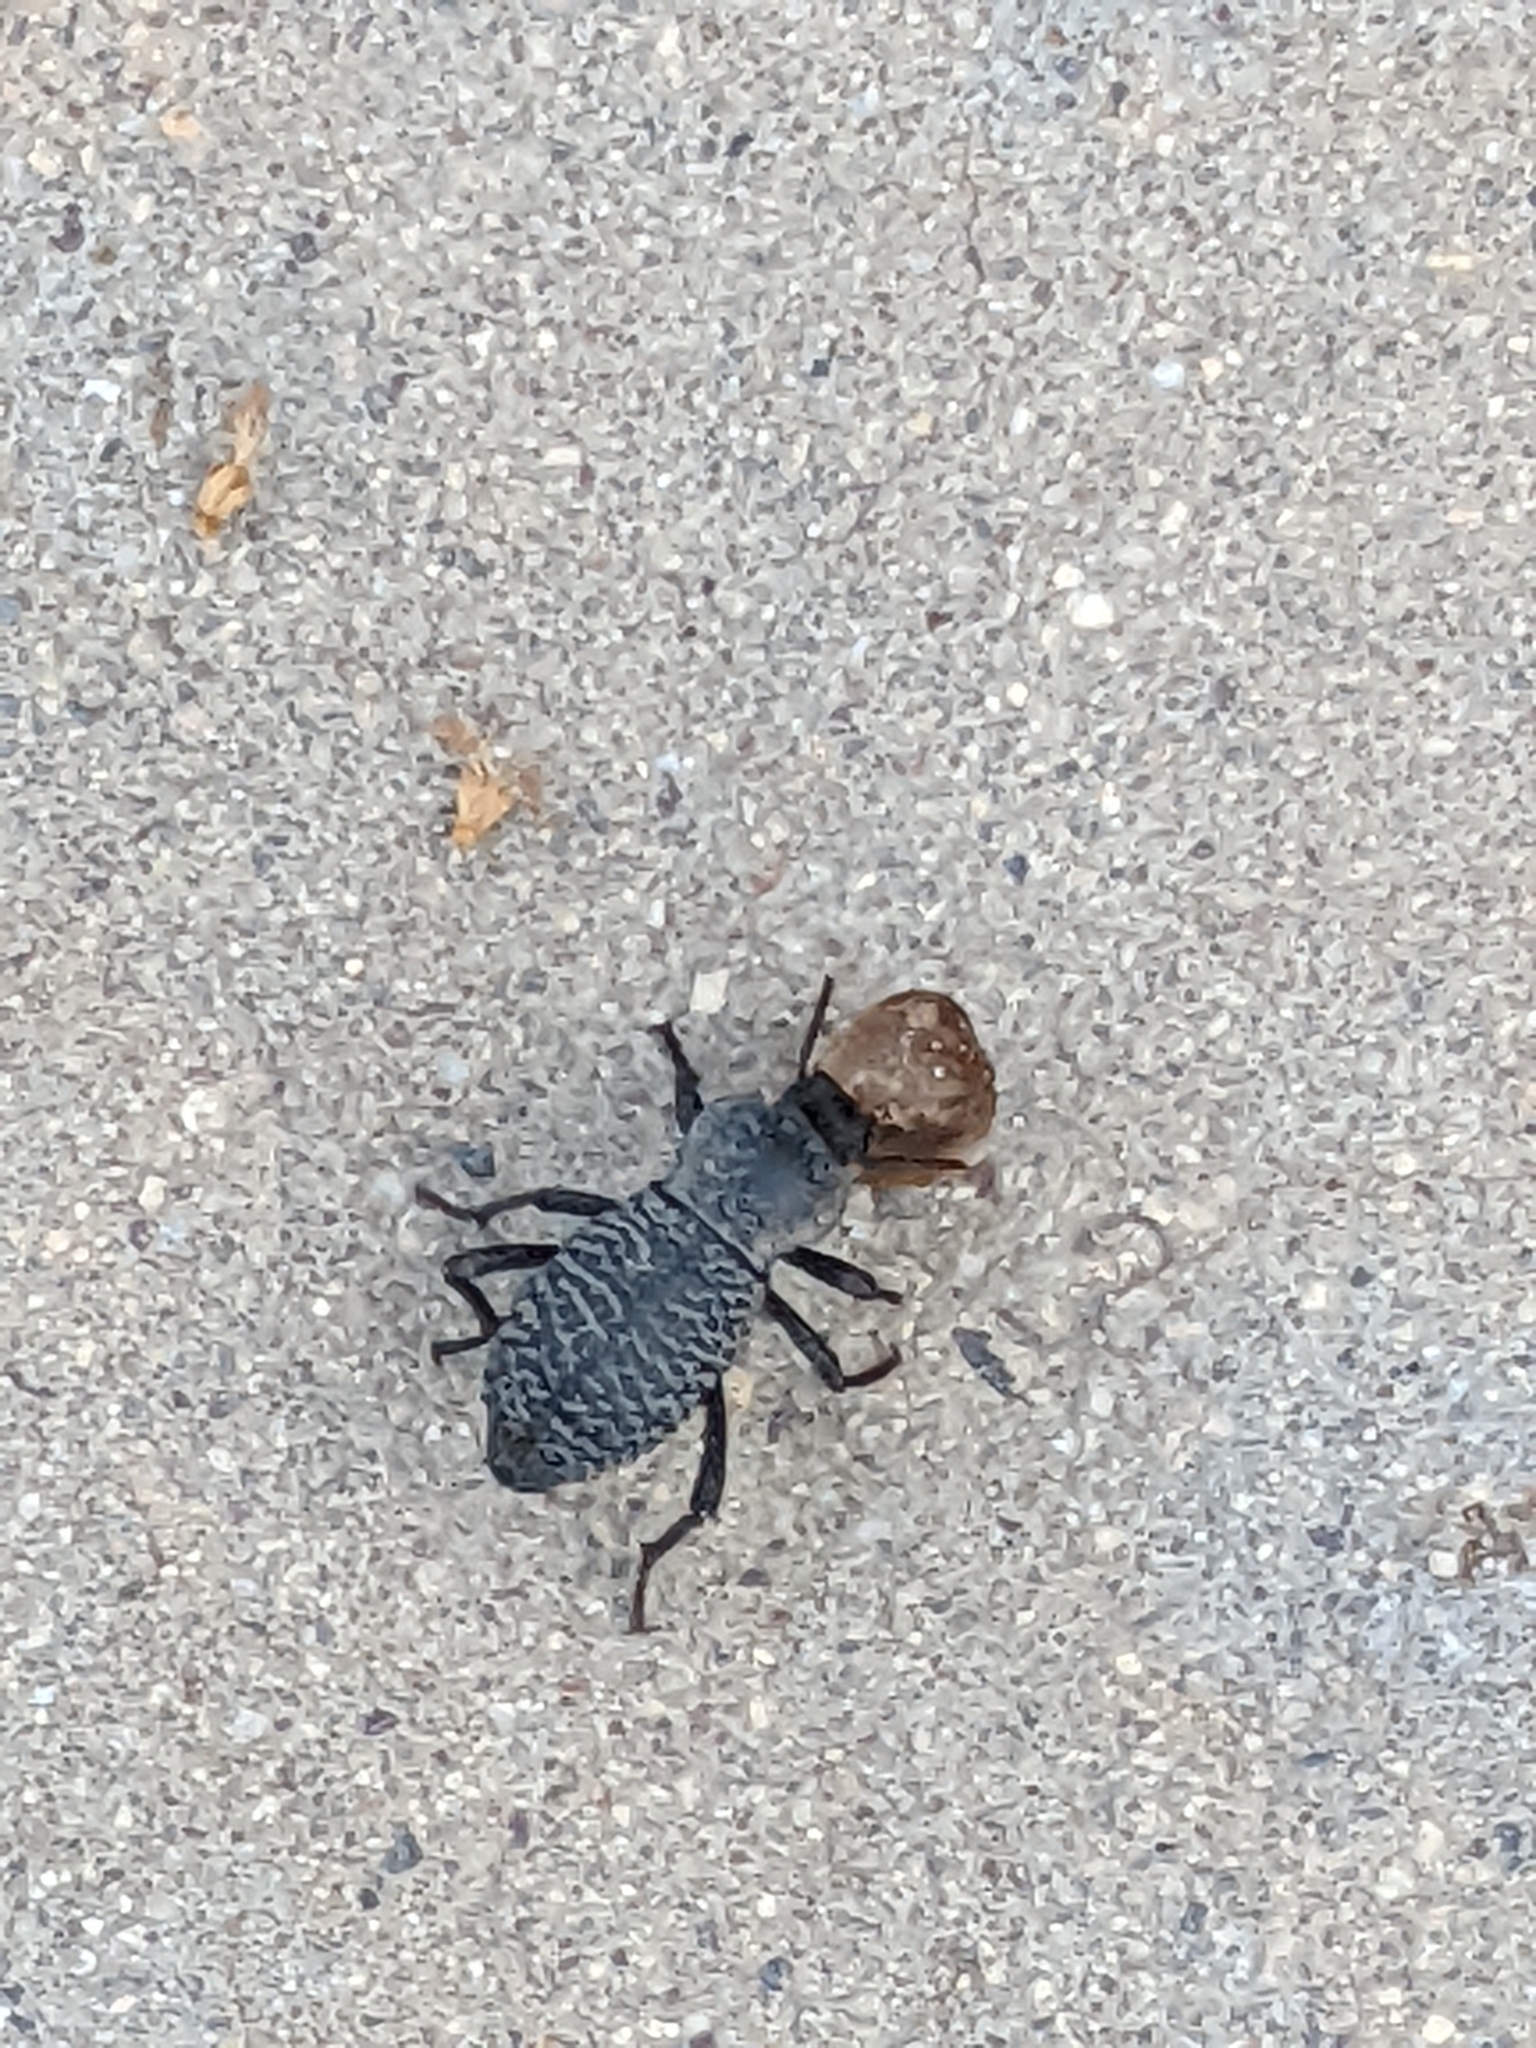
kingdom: Animalia
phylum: Arthropoda
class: Insecta
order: Coleoptera
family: Tenebrionidae
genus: Cryptoglossa
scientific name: Cryptoglossa variolosa
